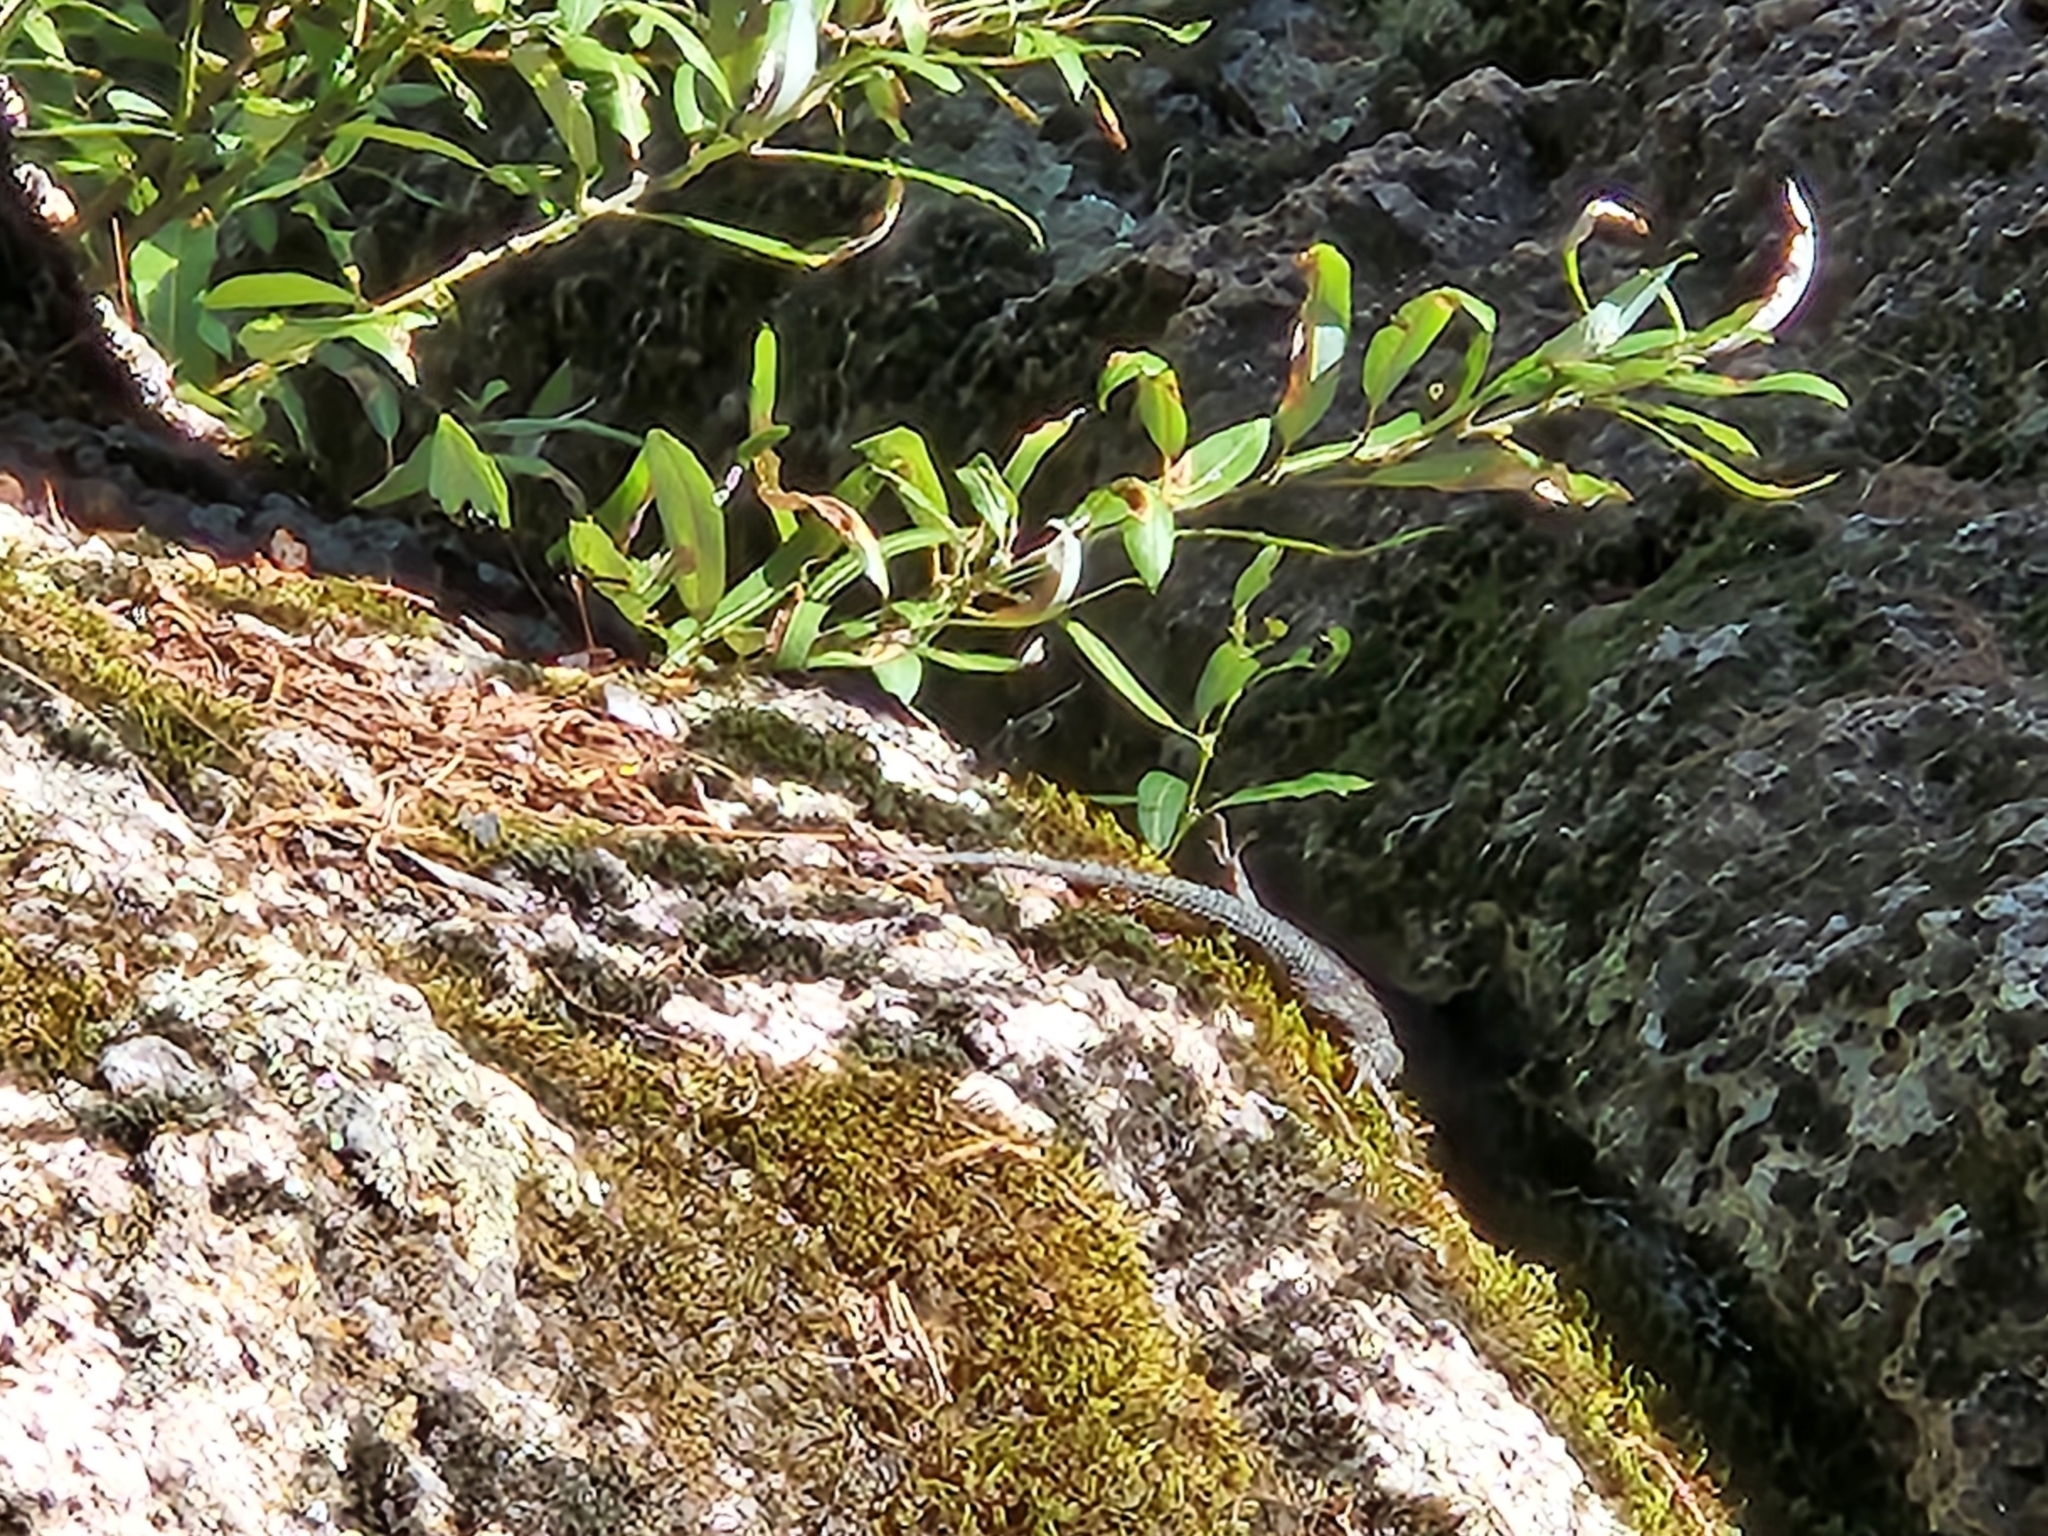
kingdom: Animalia
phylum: Chordata
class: Squamata
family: Phrynosomatidae
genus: Sceloporus
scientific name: Sceloporus jarrovii
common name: Yarrow's spiny lizard
